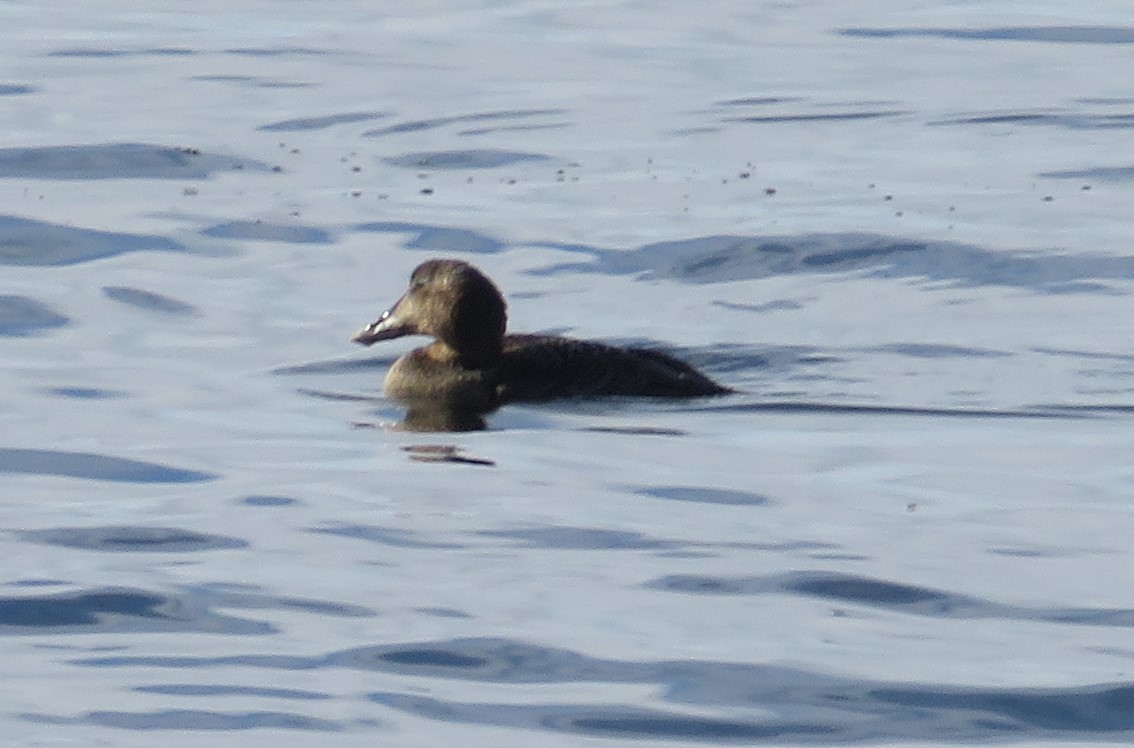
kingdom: Animalia
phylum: Chordata
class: Aves
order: Anseriformes
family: Anatidae
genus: Somateria
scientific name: Somateria mollissima
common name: Common eider
